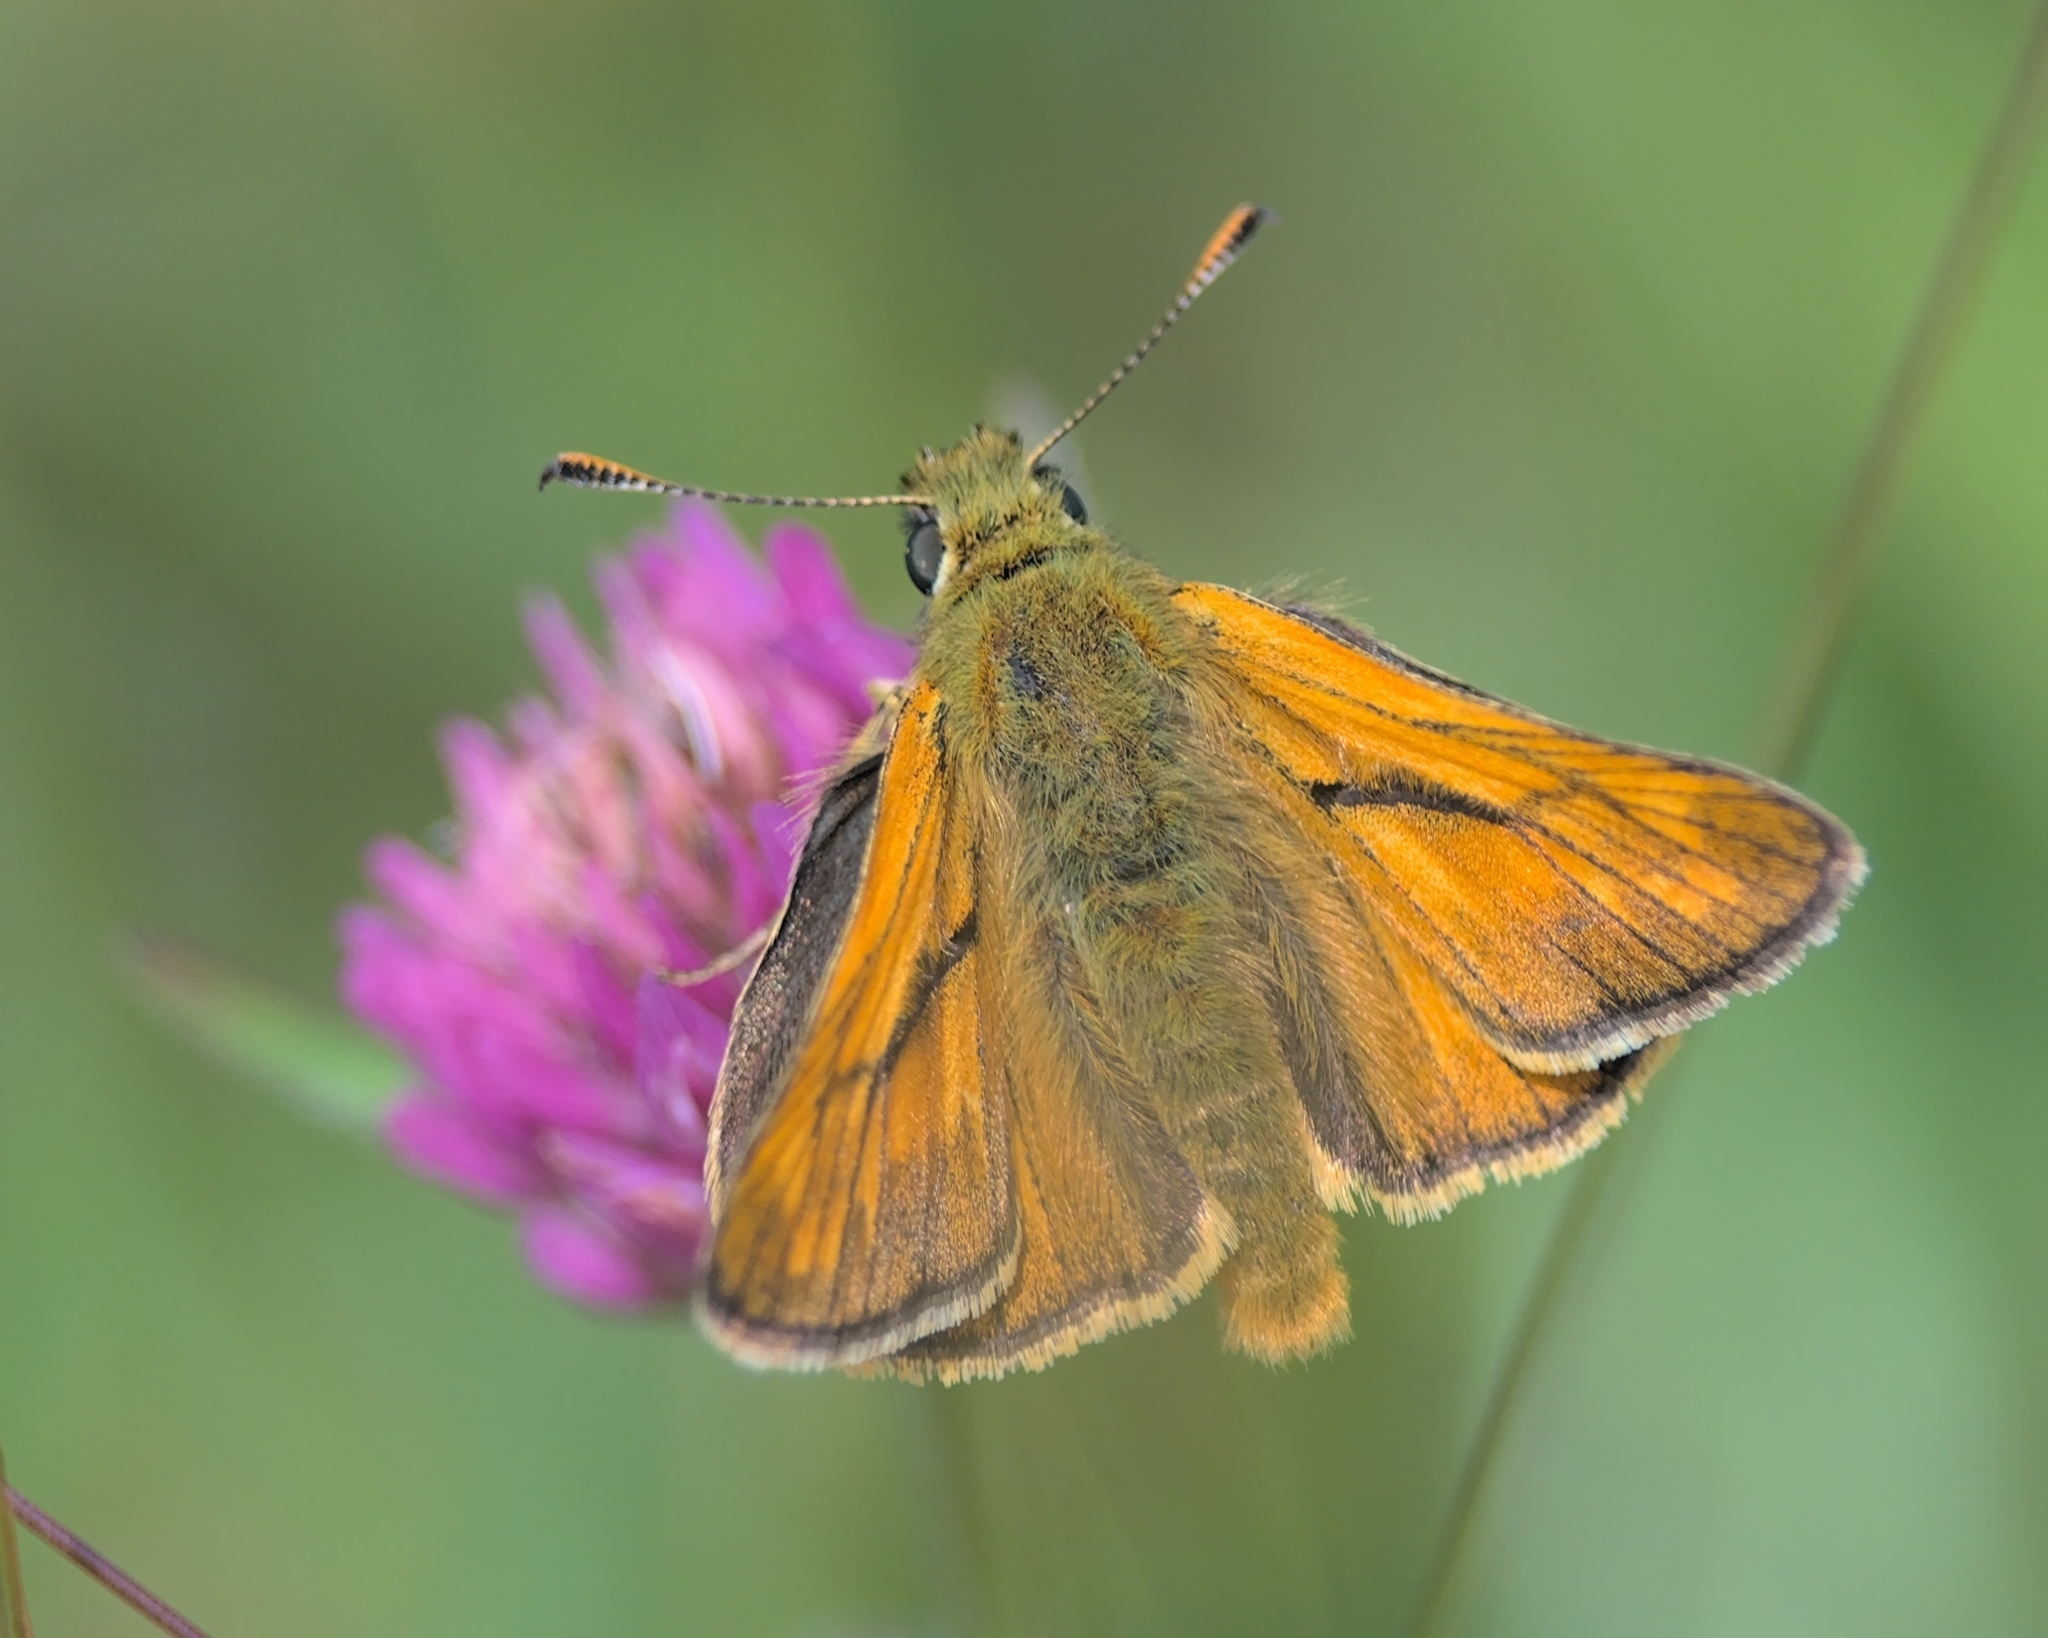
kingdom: Animalia
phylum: Arthropoda
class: Insecta
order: Lepidoptera
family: Hesperiidae
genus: Ochlodes
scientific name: Ochlodes venata
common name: Large skipper
